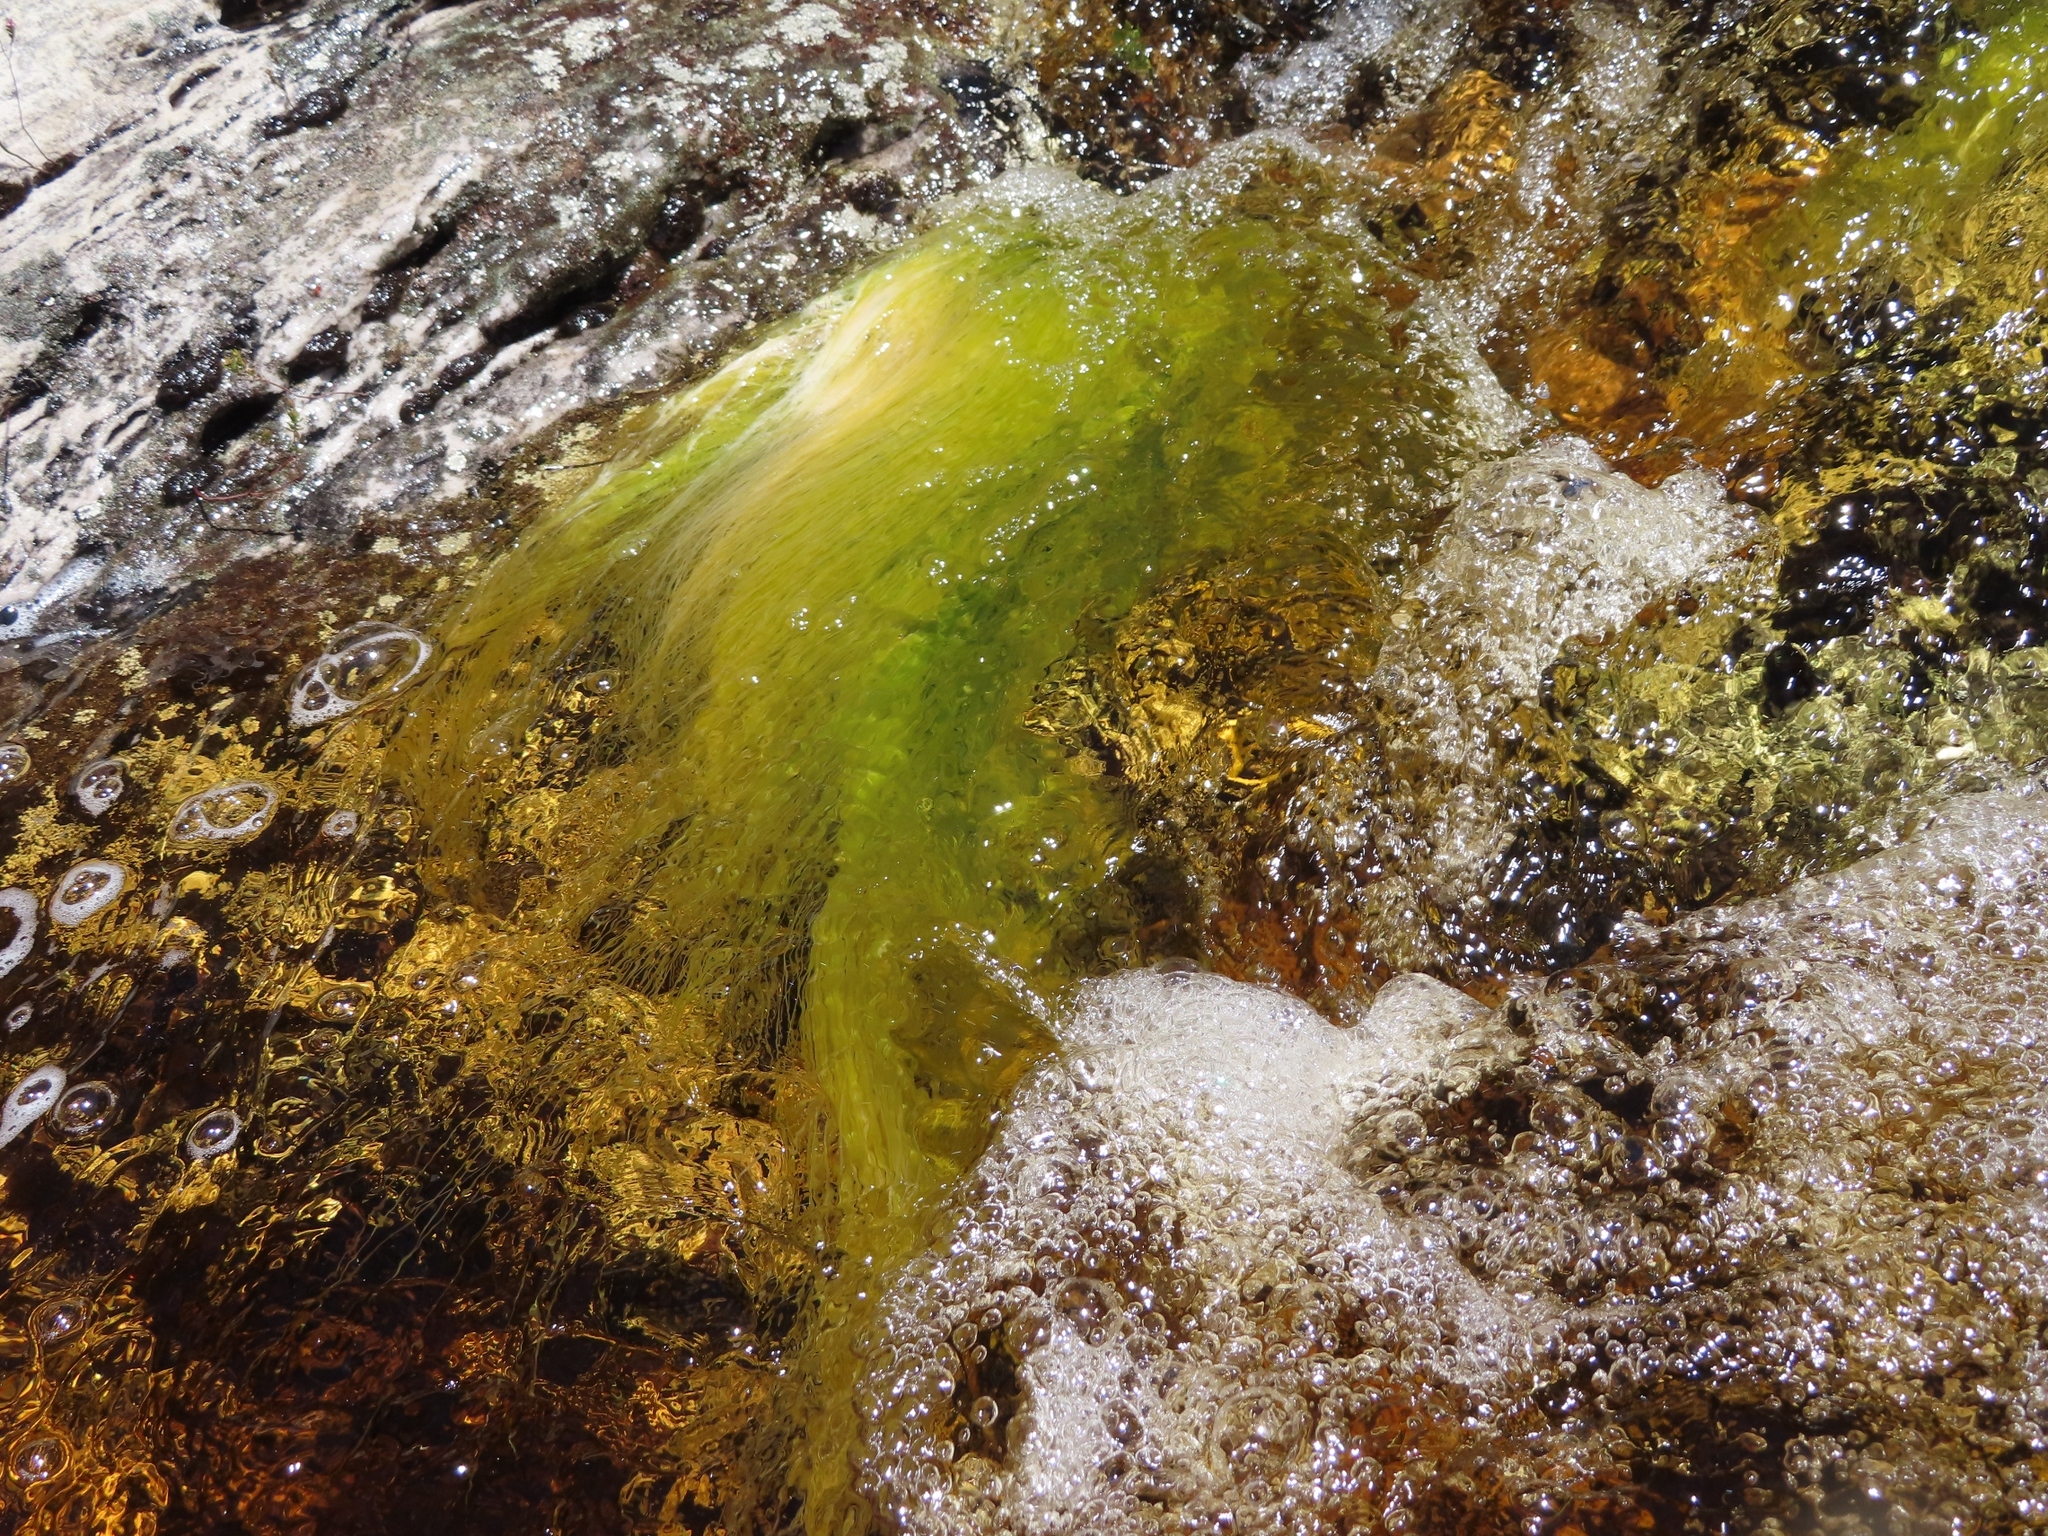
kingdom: Plantae
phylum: Tracheophyta
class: Liliopsida
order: Poales
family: Cyperaceae
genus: Isolepis
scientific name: Isolepis digitata
